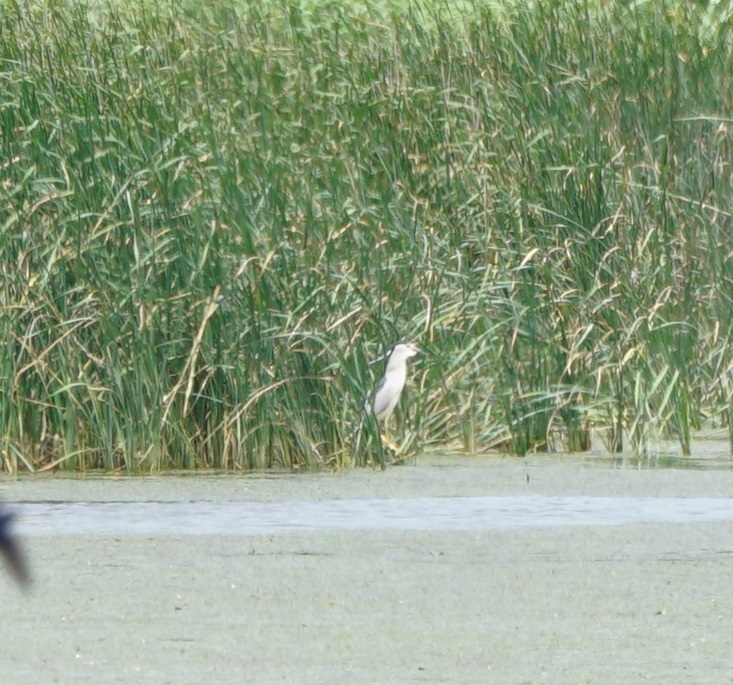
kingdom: Animalia
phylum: Chordata
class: Aves
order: Pelecaniformes
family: Ardeidae
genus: Nycticorax
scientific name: Nycticorax nycticorax
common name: Black-crowned night heron
